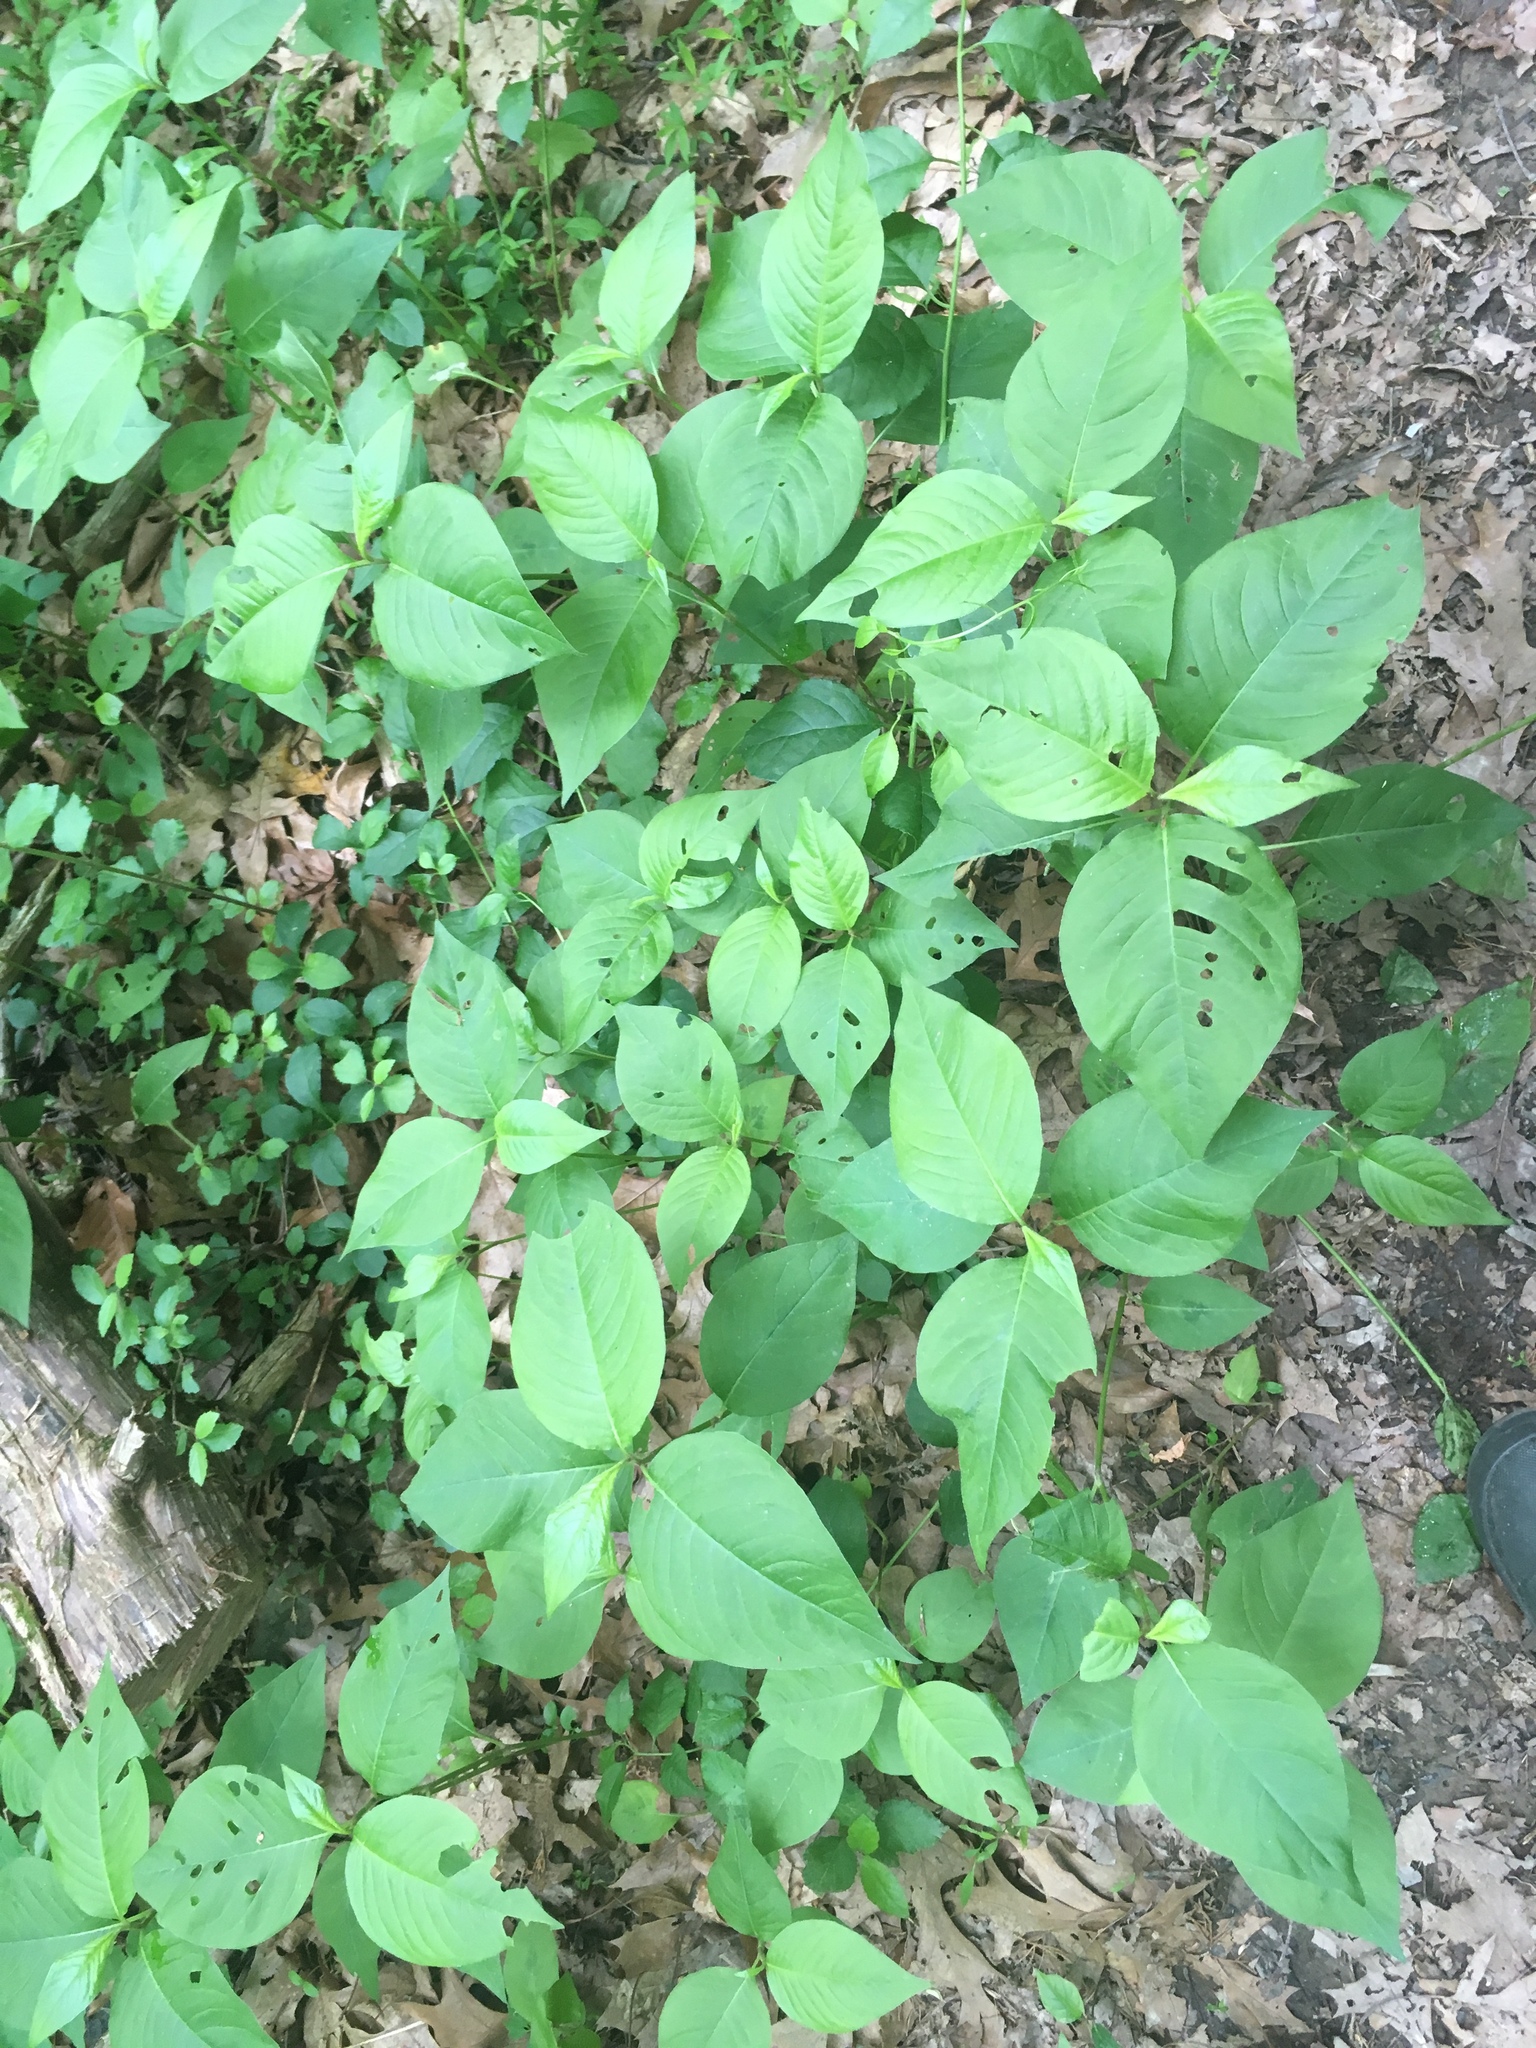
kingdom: Plantae
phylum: Tracheophyta
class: Magnoliopsida
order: Caryophyllales
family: Polygonaceae
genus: Persicaria
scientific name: Persicaria virginiana
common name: Jumpseed
